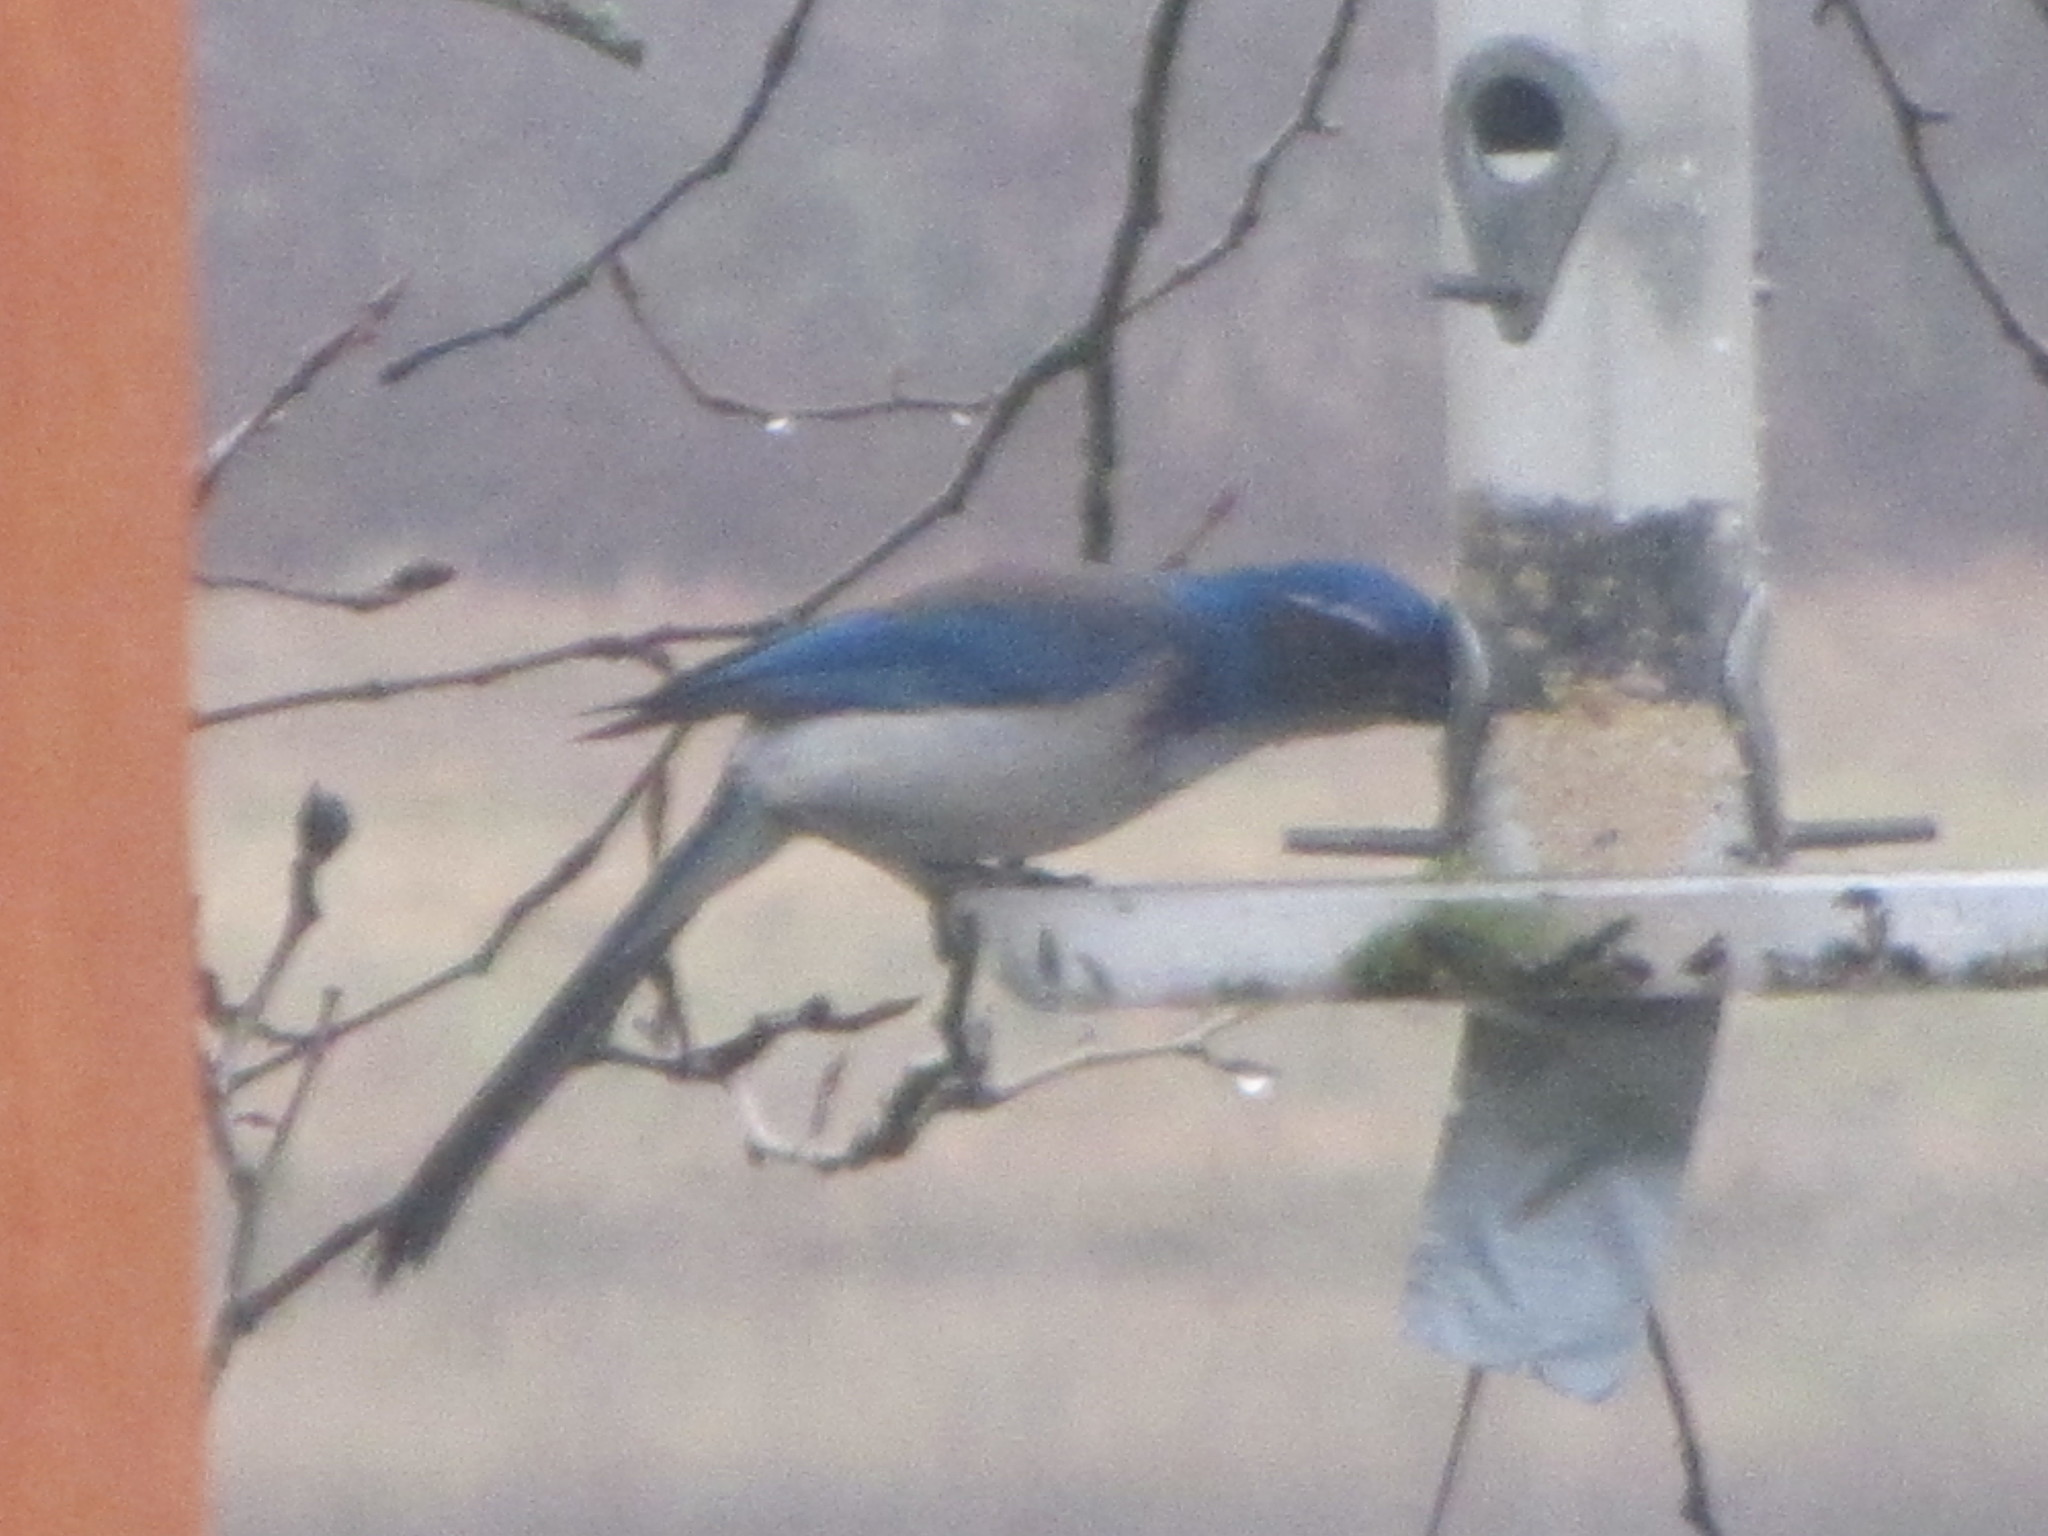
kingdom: Animalia
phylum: Chordata
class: Aves
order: Passeriformes
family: Corvidae
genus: Aphelocoma
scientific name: Aphelocoma californica
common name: California scrub-jay
